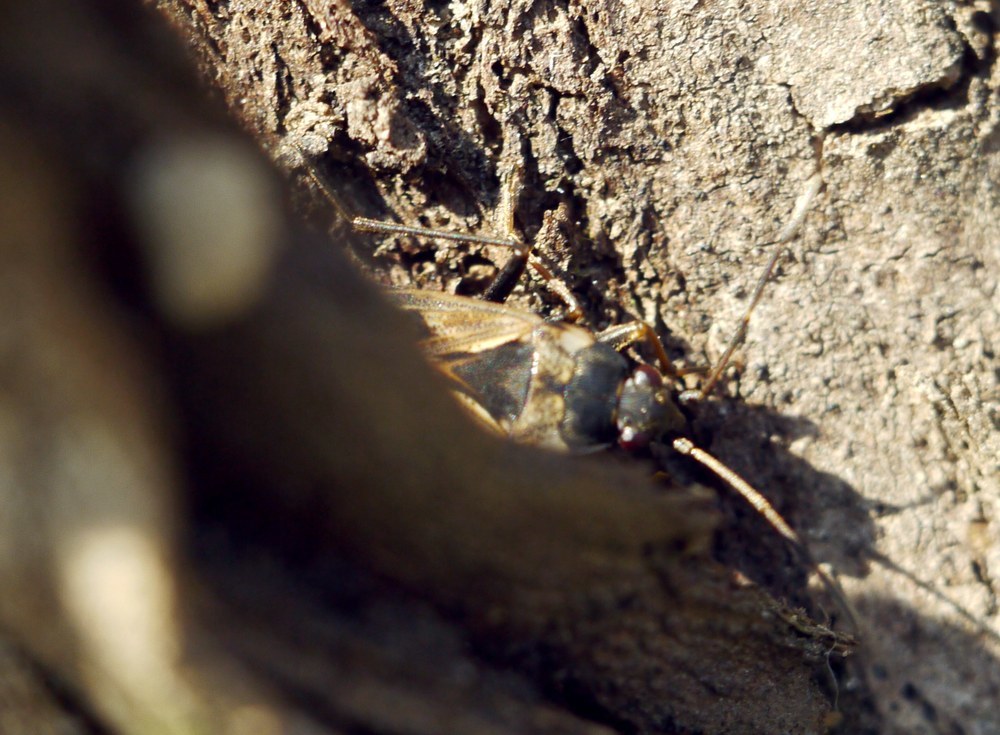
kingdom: Animalia
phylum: Arthropoda
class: Insecta
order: Hemiptera
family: Rhyparochromidae
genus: Rhyparochromus
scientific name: Rhyparochromus vulgaris
